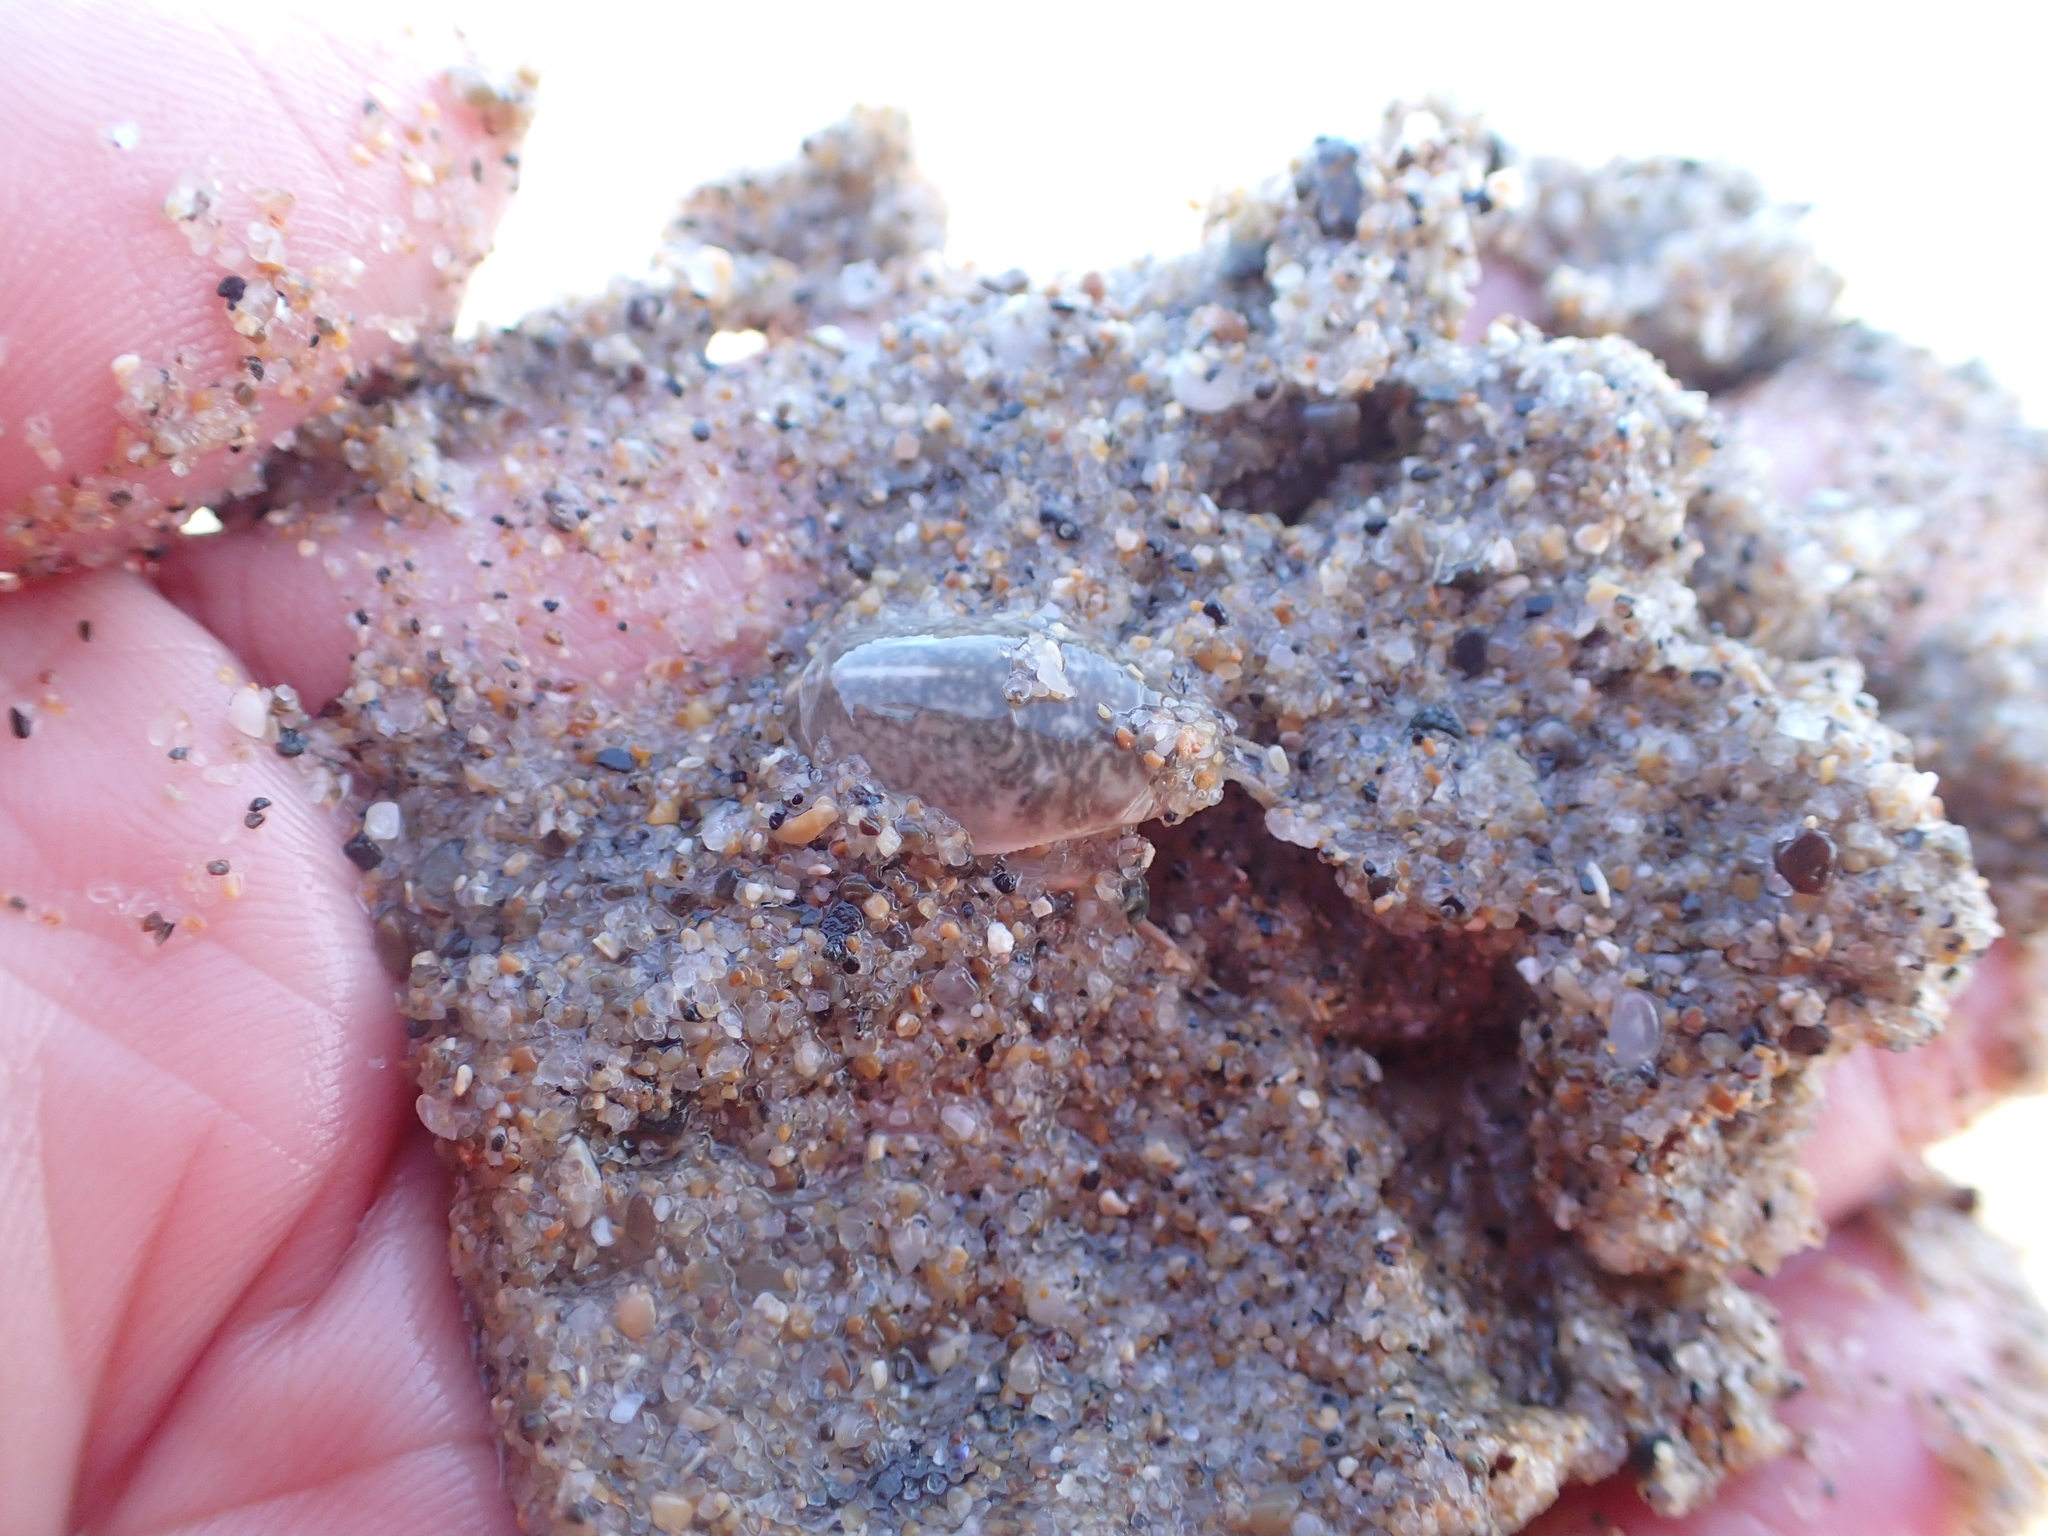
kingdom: Animalia
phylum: Arthropoda
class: Malacostraca
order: Decapoda
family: Hippidae
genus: Emerita
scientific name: Emerita analoga
